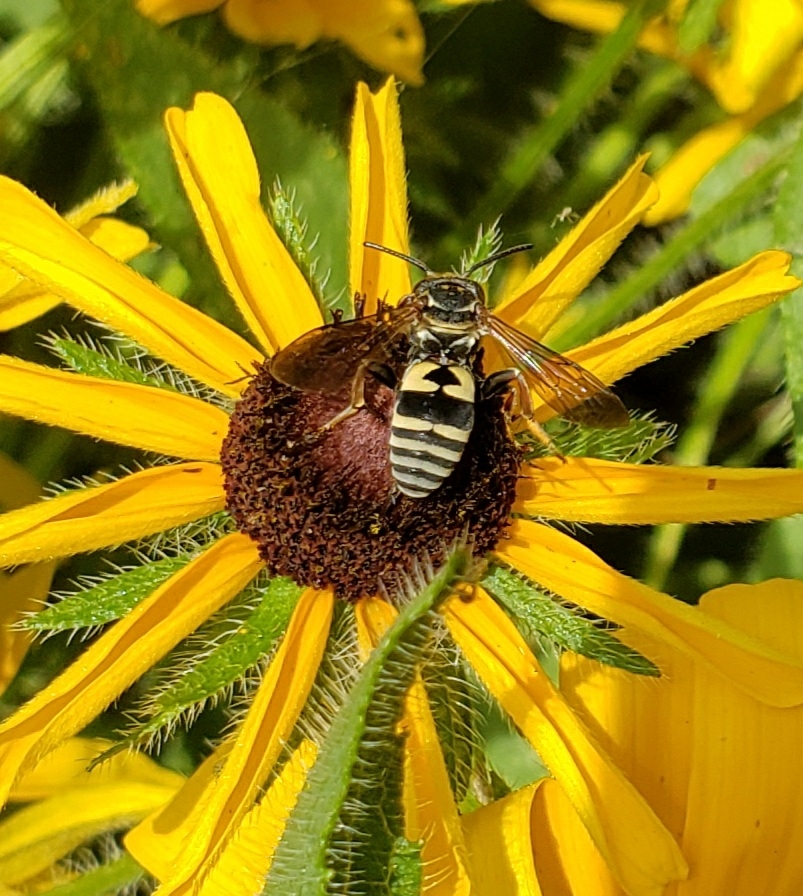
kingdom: Animalia
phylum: Arthropoda
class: Insecta
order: Hymenoptera
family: Apidae
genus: Triepeolus
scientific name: Triepeolus lunatus
